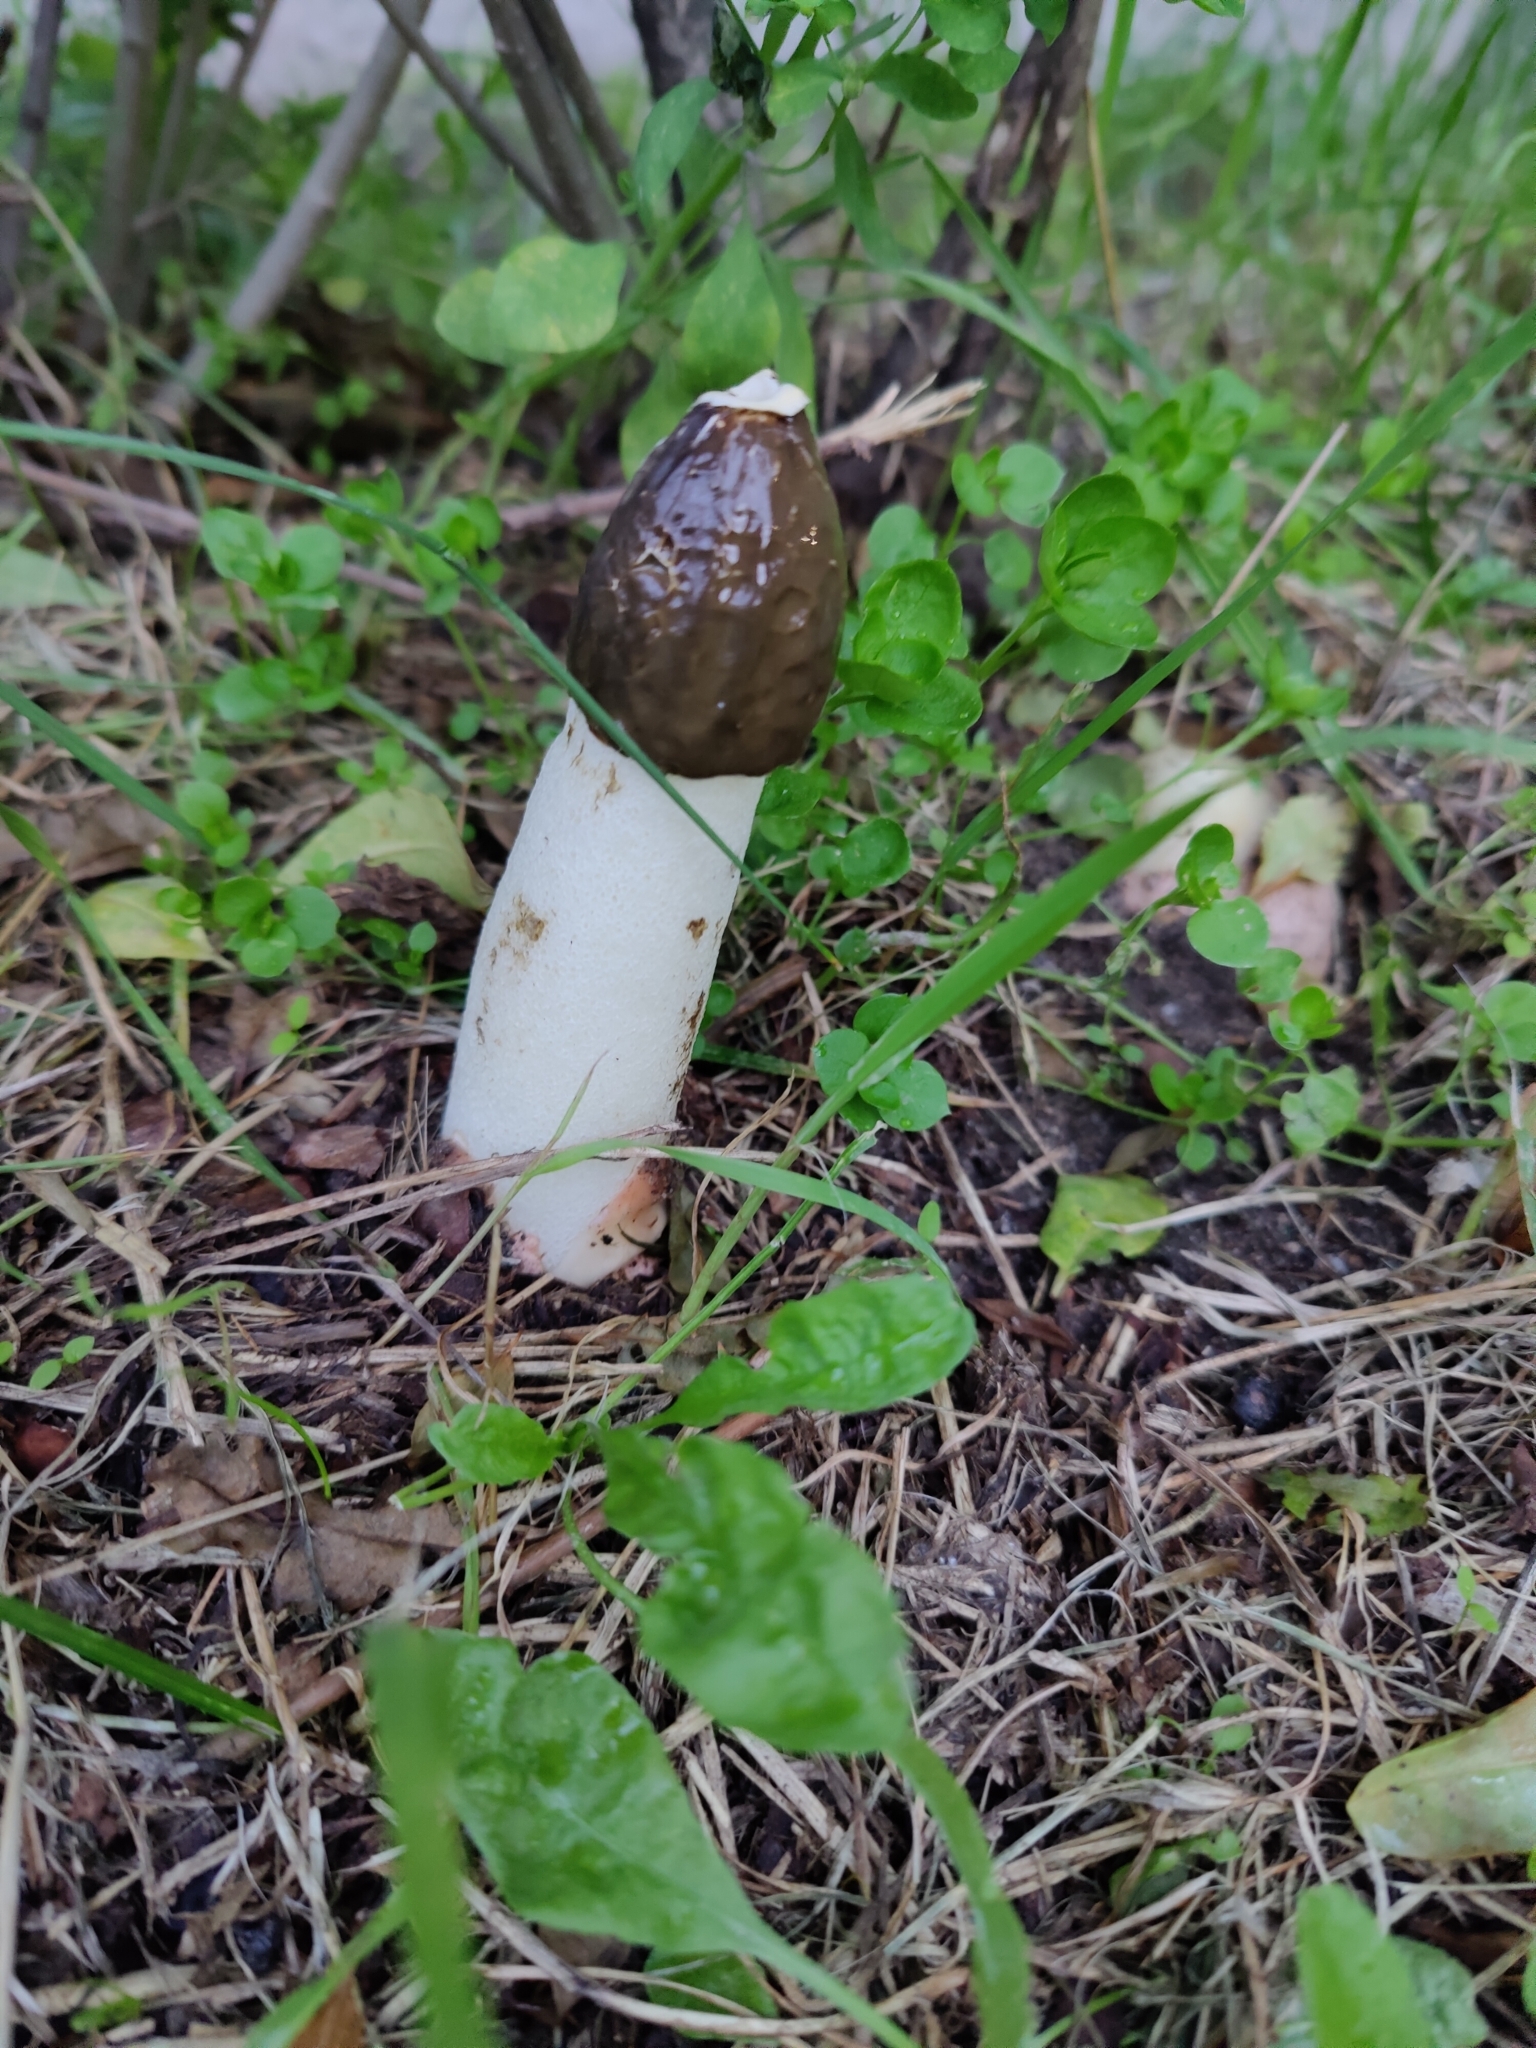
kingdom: Fungi
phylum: Basidiomycota
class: Agaricomycetes
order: Phallales
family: Phallaceae
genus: Phallus
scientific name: Phallus impudicus
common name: Common stinkhorn
